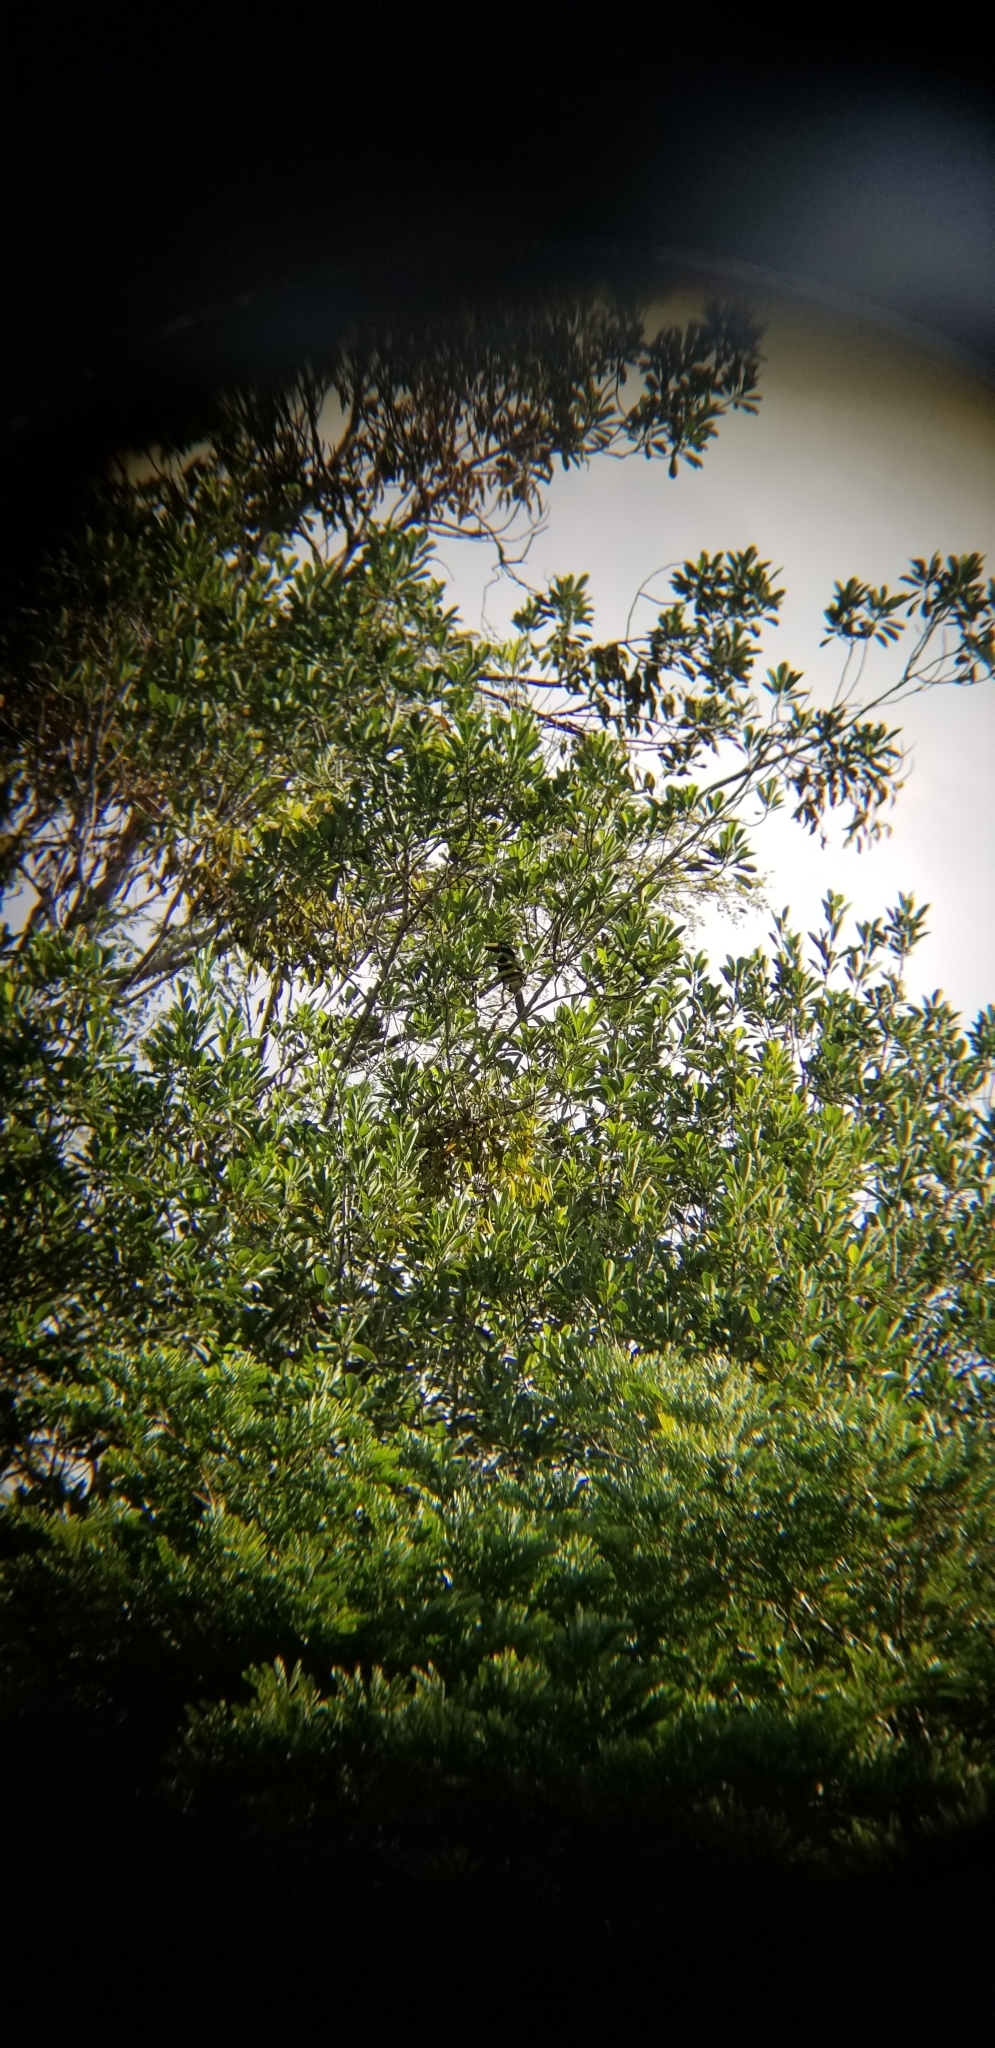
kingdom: Animalia
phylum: Chordata
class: Aves
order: Piciformes
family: Ramphastidae
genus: Pteroglossus
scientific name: Pteroglossus pluricinctus
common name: Many-banded aracari
